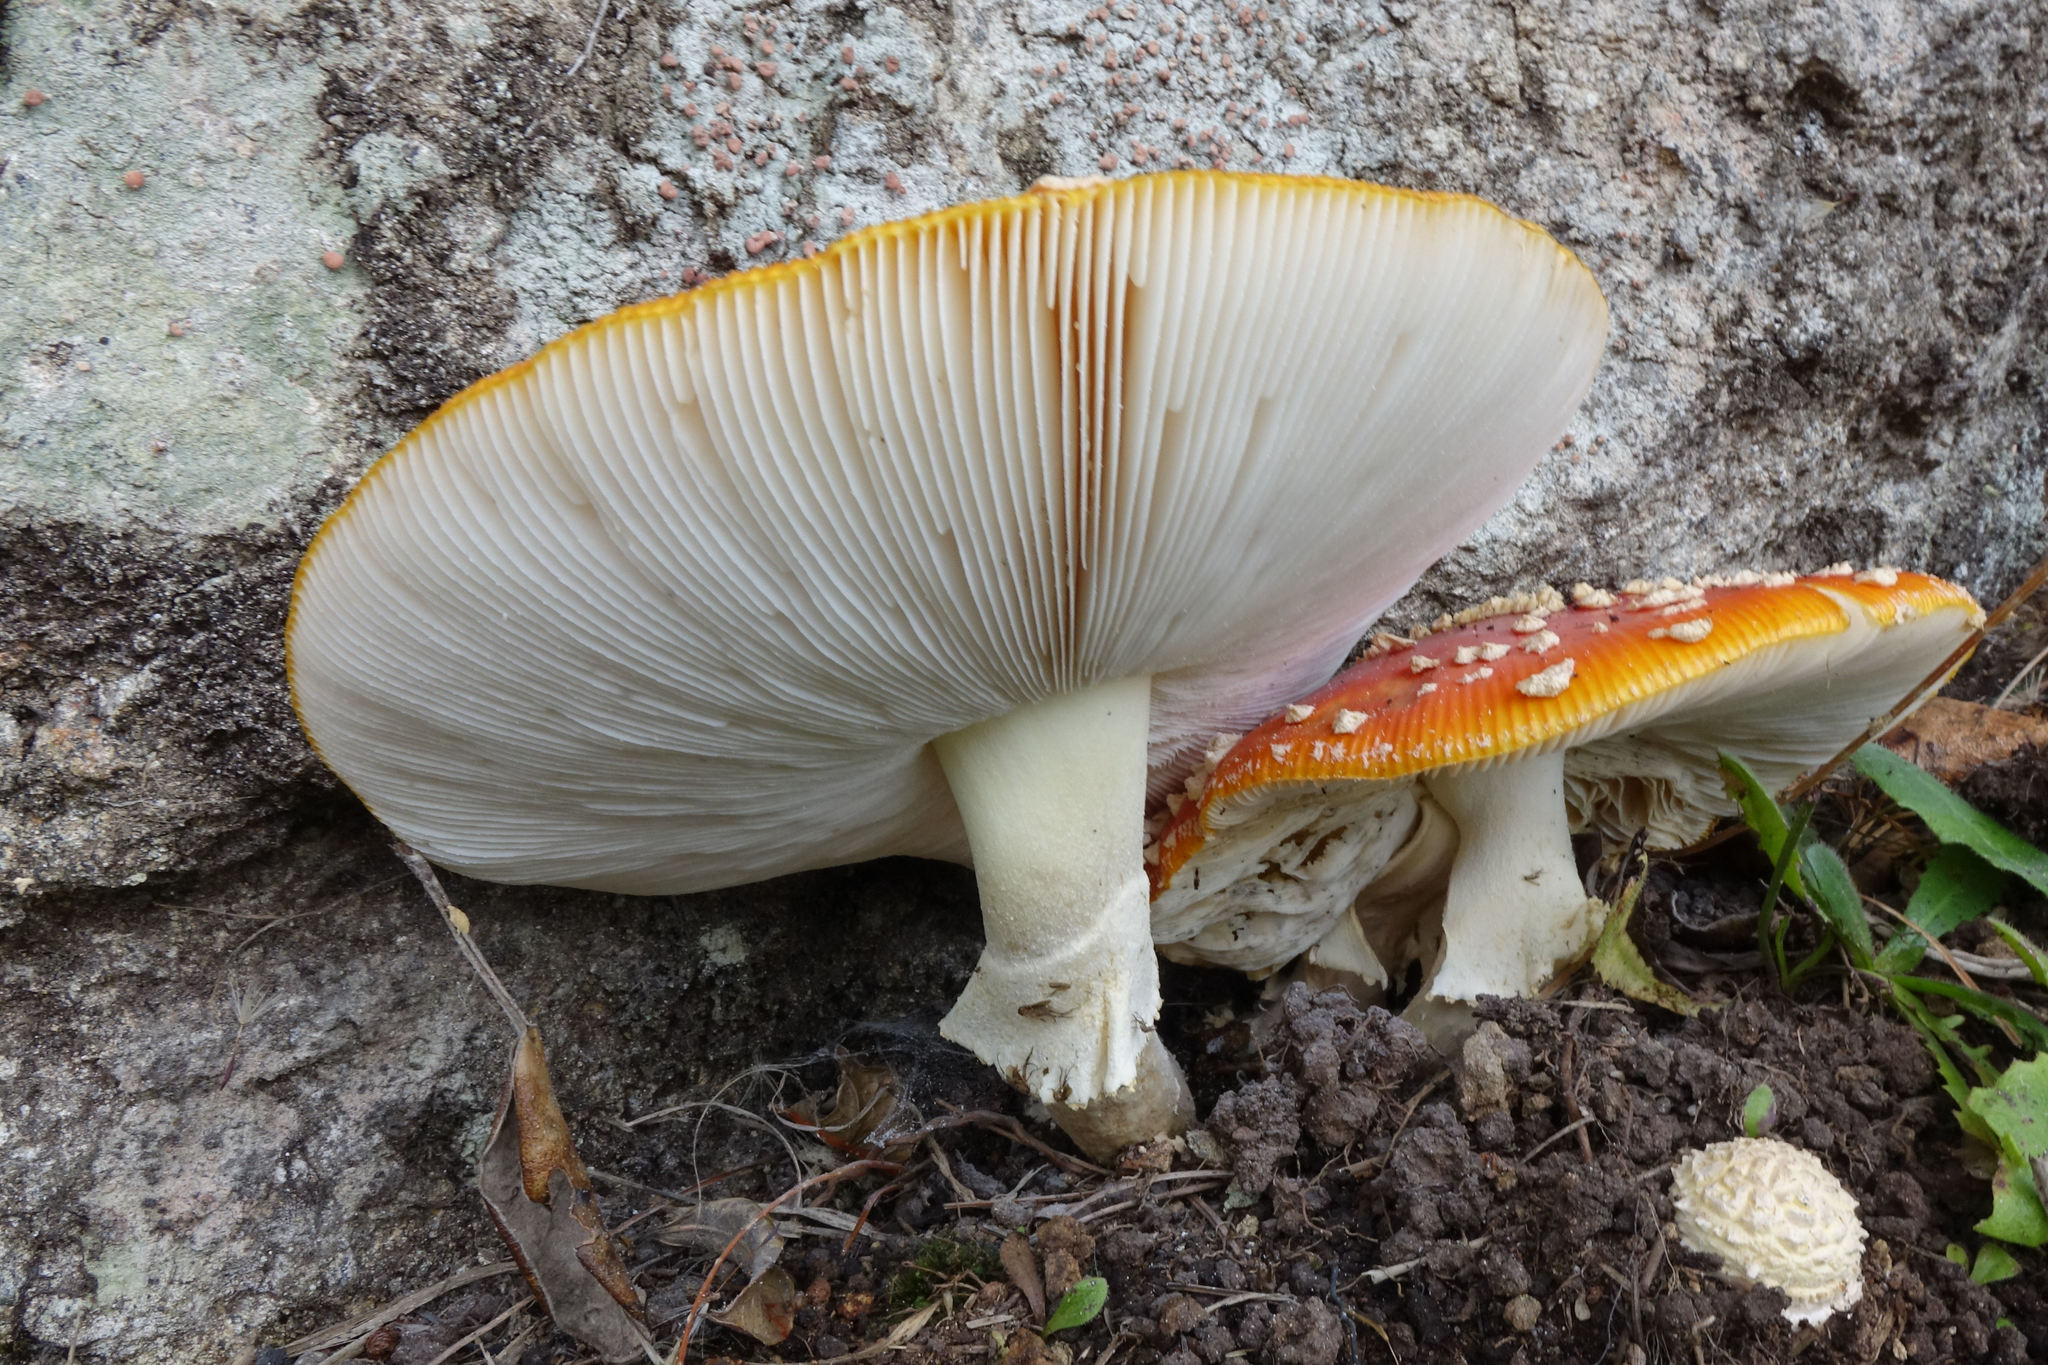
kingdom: Fungi
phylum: Basidiomycota
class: Agaricomycetes
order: Agaricales
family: Amanitaceae
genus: Amanita
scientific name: Amanita muscaria
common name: Fly agaric
